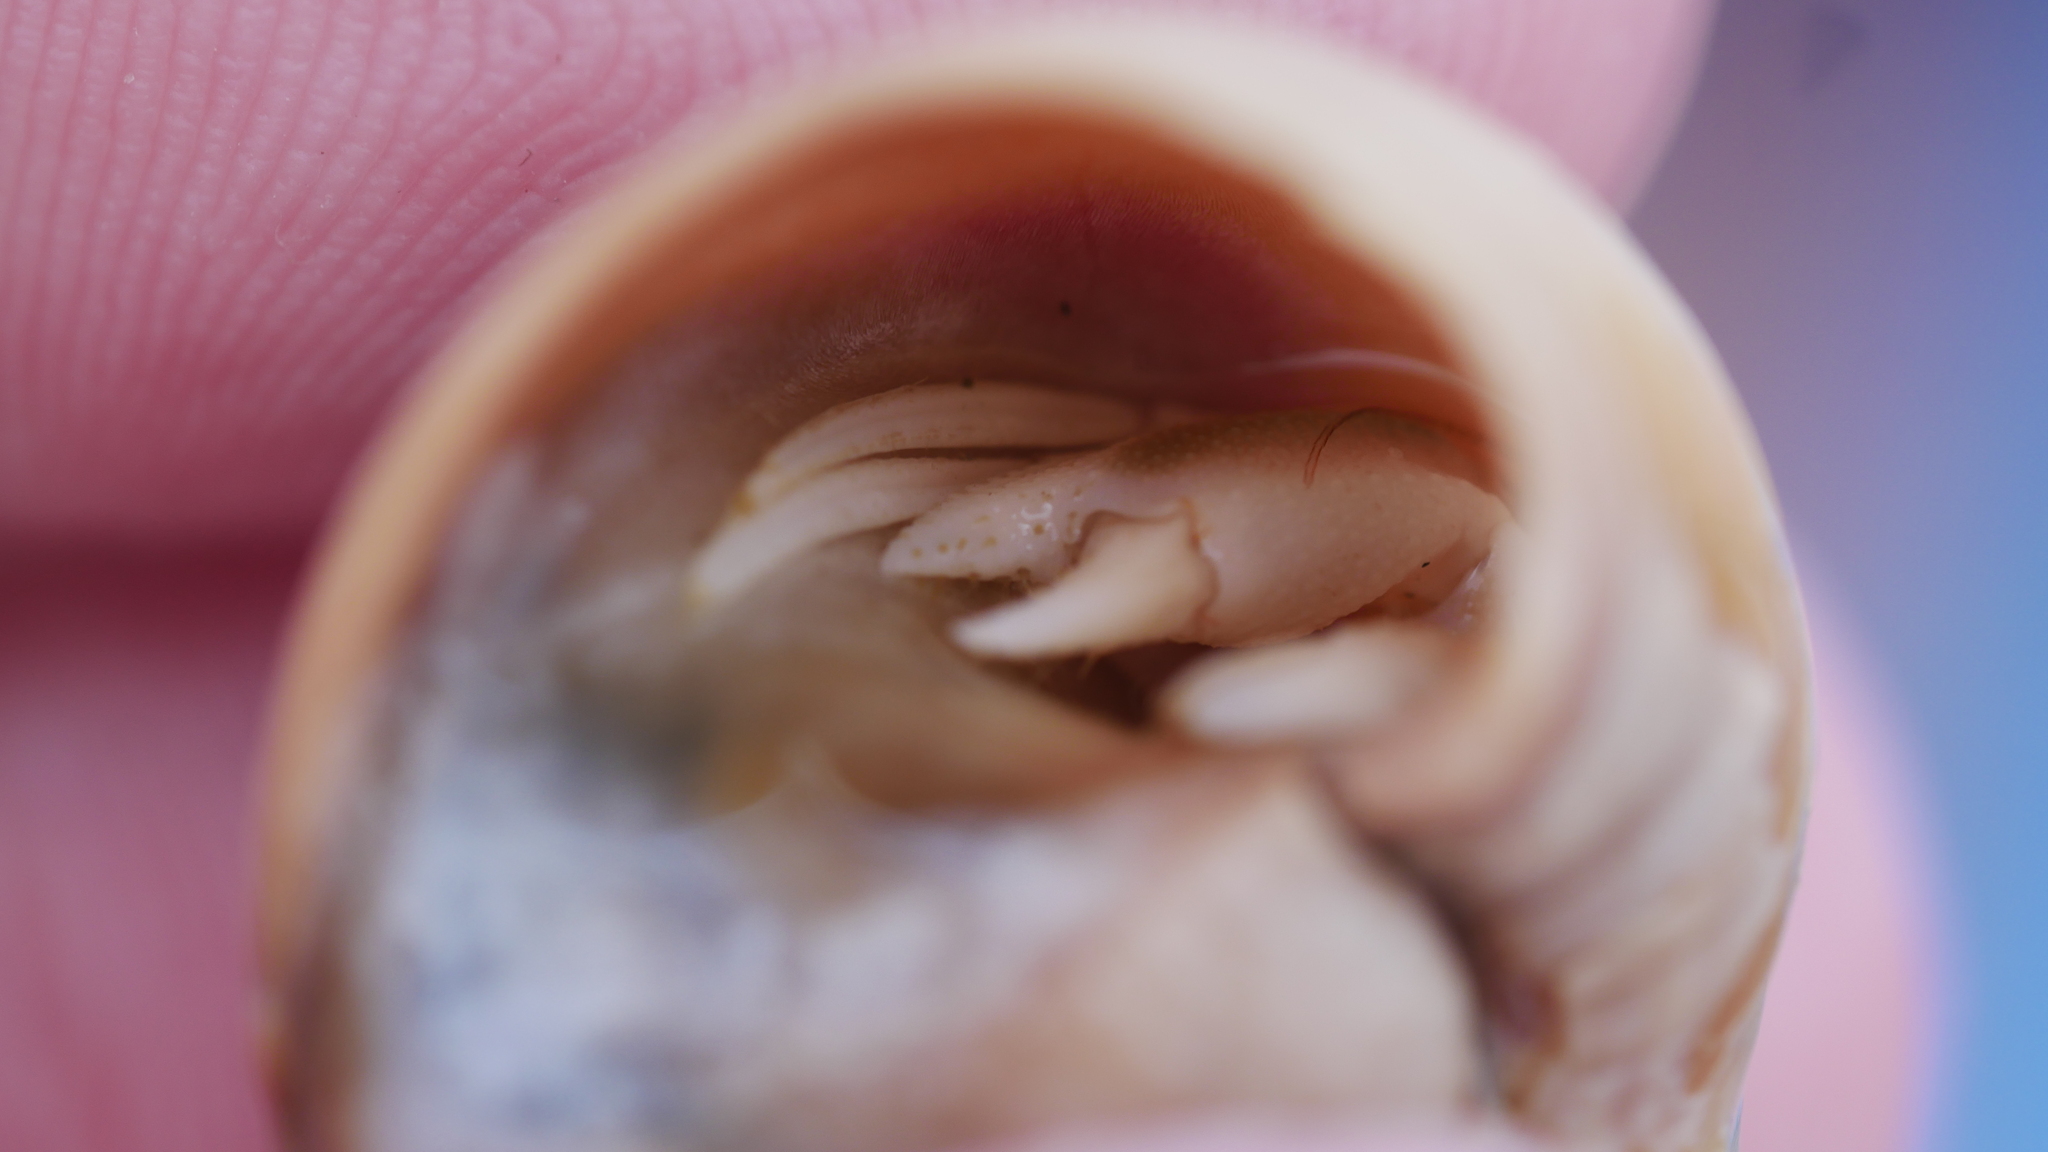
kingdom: Animalia
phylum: Arthropoda
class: Malacostraca
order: Decapoda
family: Paguridae
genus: Pagurus
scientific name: Pagurus longicarpus
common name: Long-armed hermit crab
